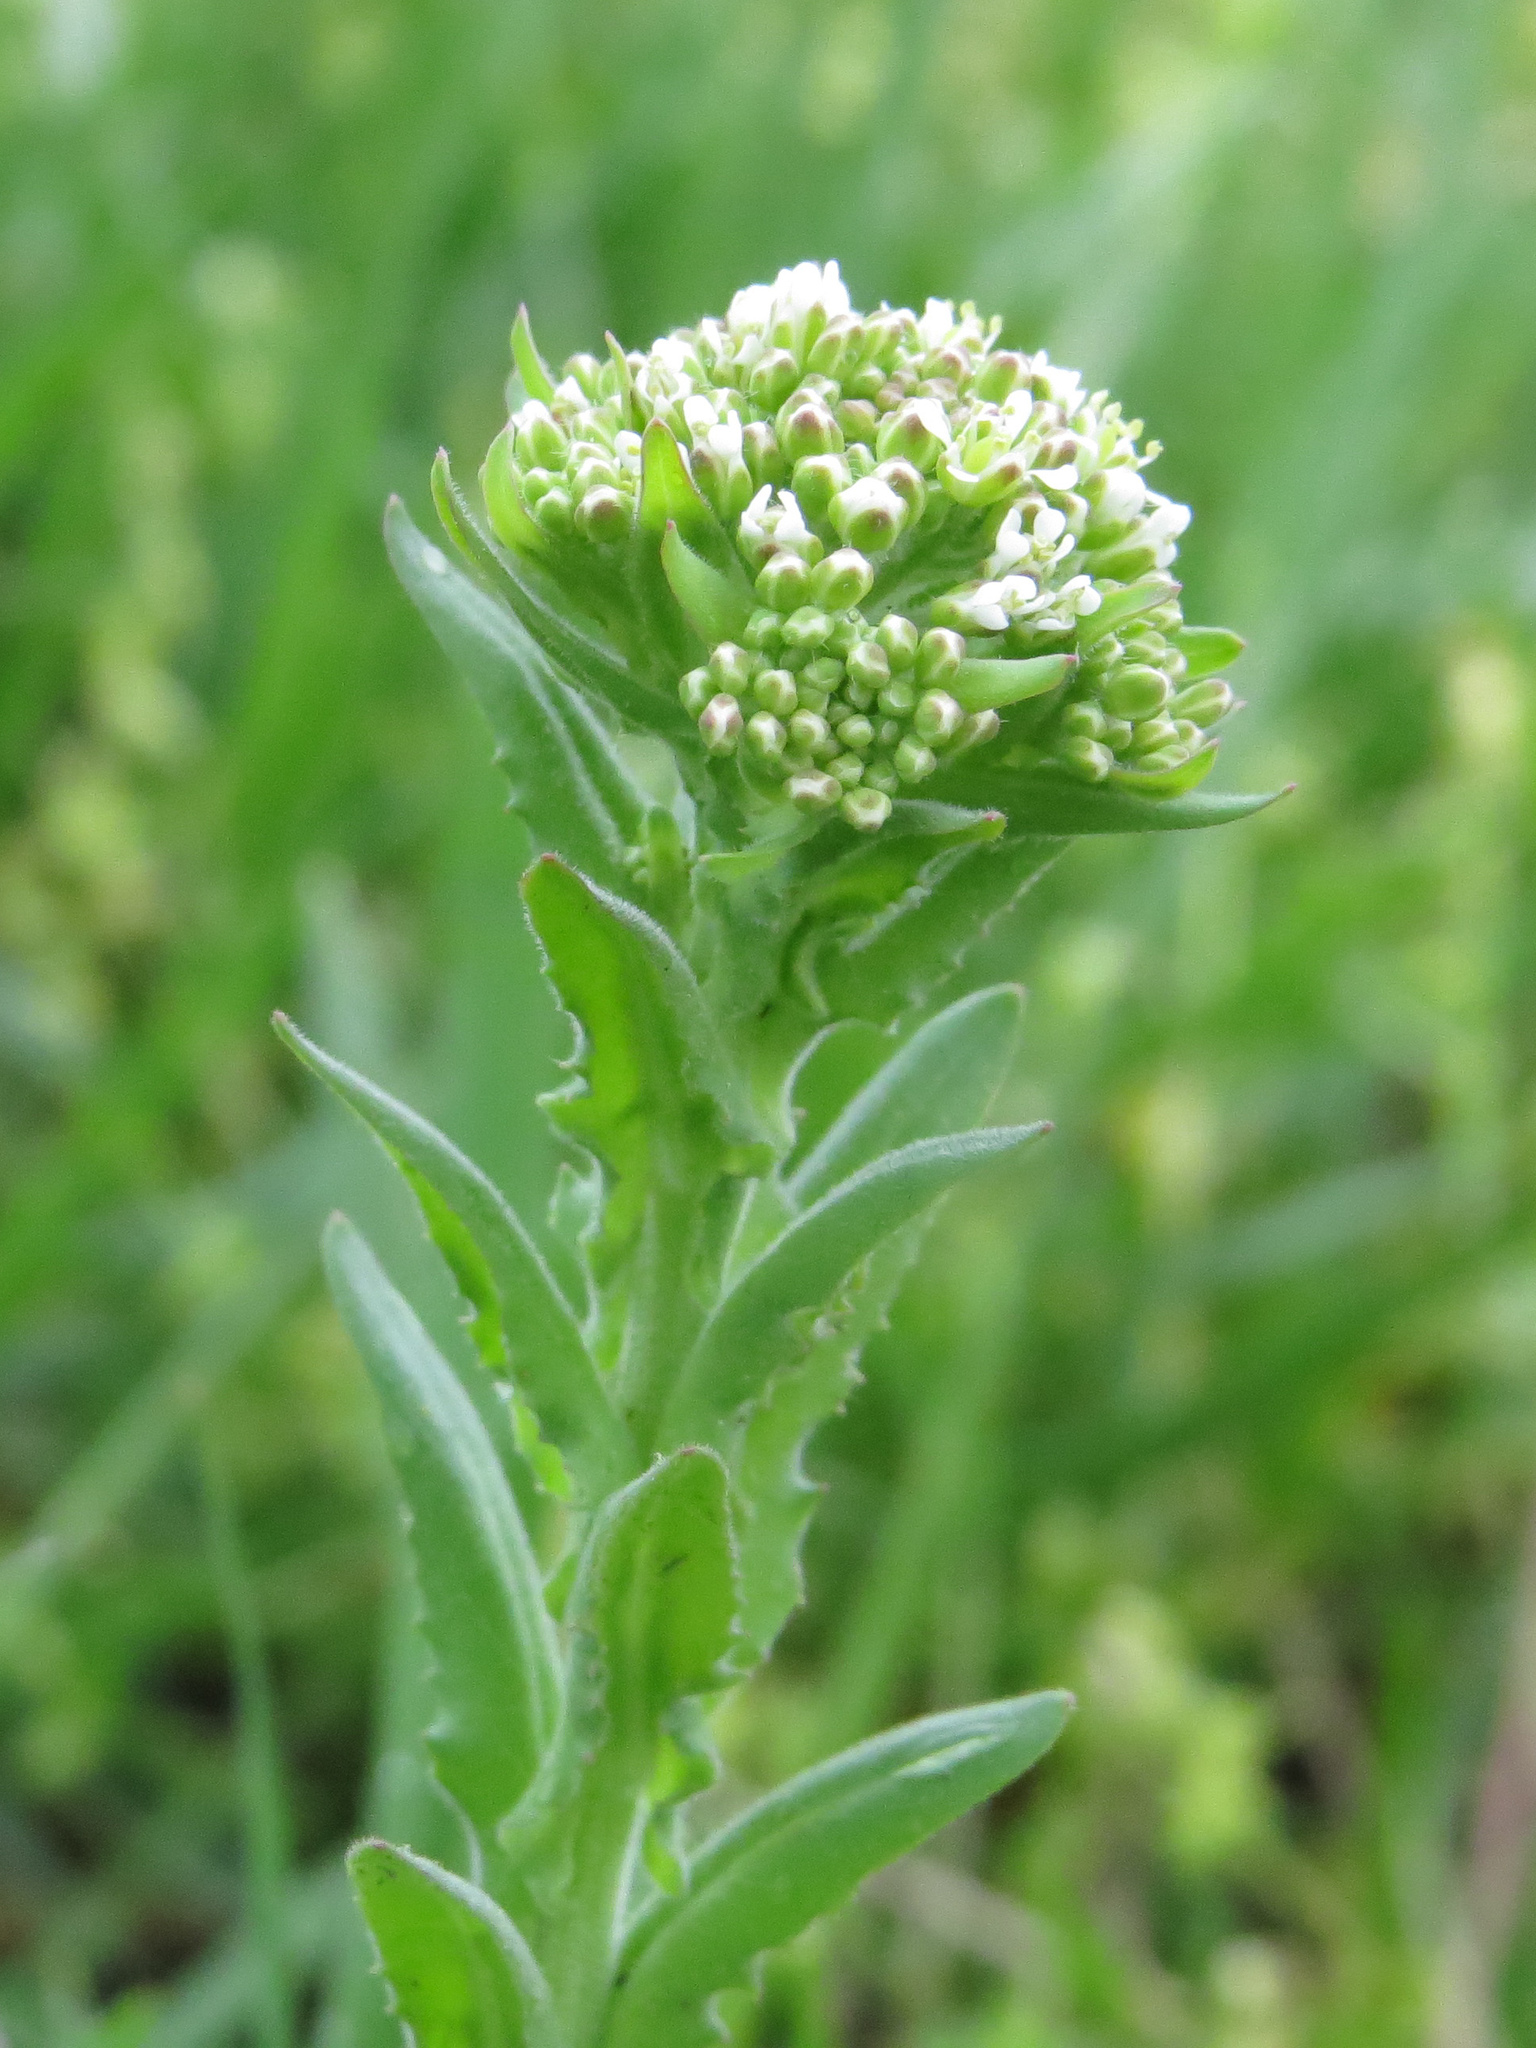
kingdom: Plantae
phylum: Tracheophyta
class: Magnoliopsida
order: Brassicales
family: Brassicaceae
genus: Lepidium
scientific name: Lepidium campestre
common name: Field pepperwort
